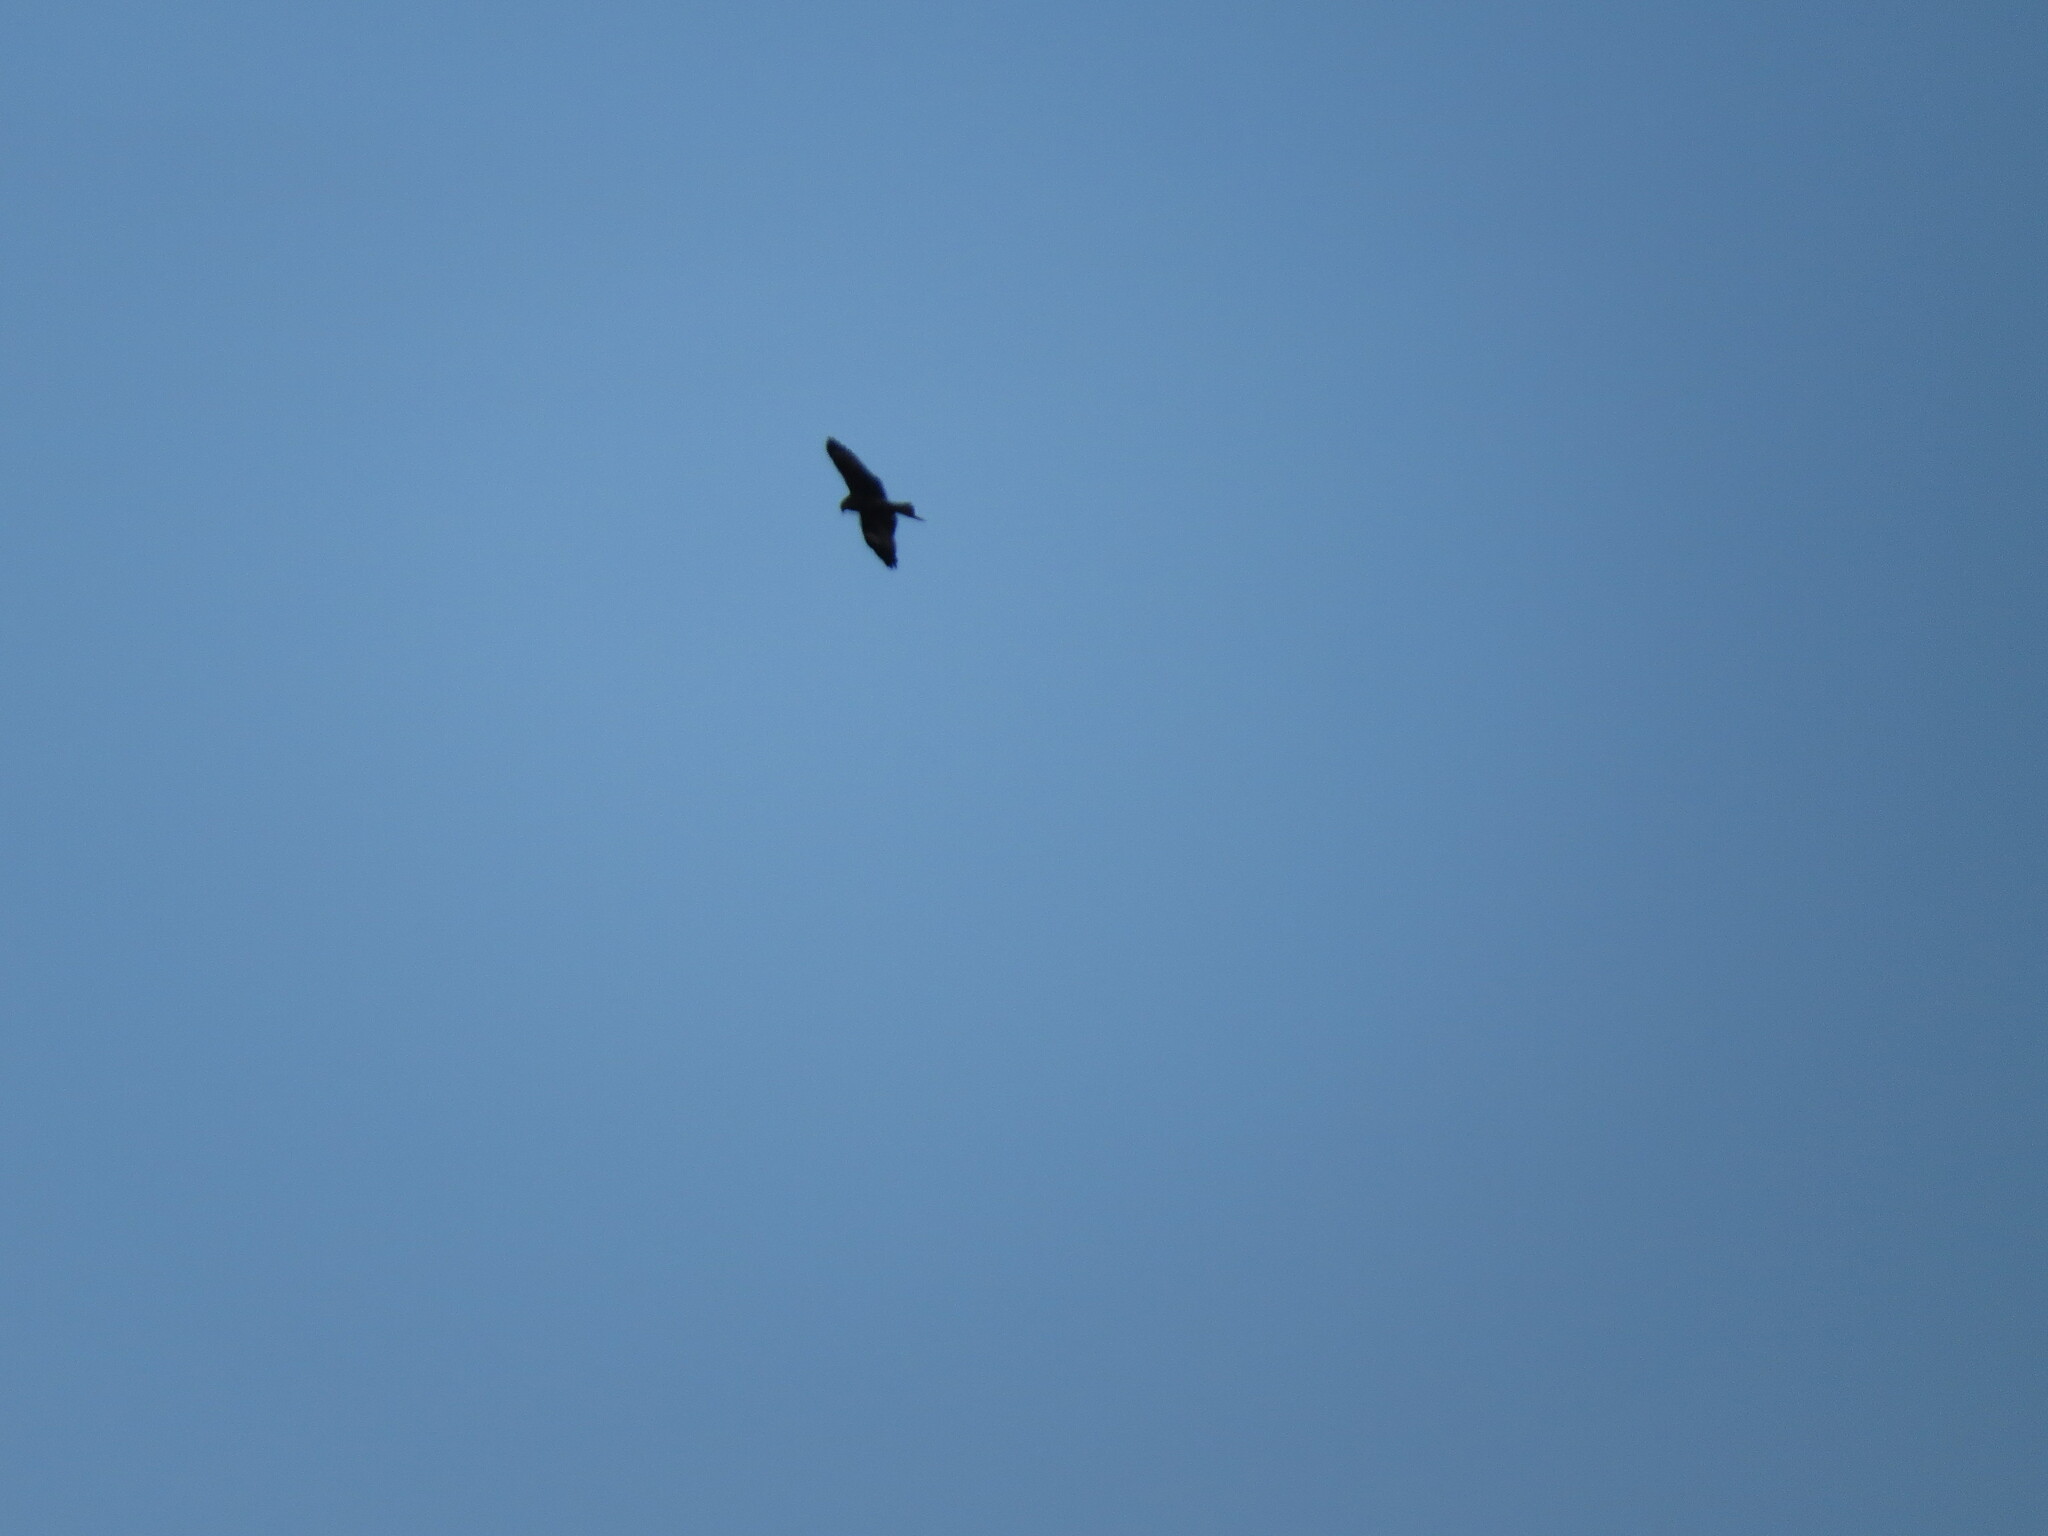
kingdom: Animalia
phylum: Chordata
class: Aves
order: Accipitriformes
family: Accipitridae
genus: Milvus
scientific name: Milvus migrans
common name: Black kite
